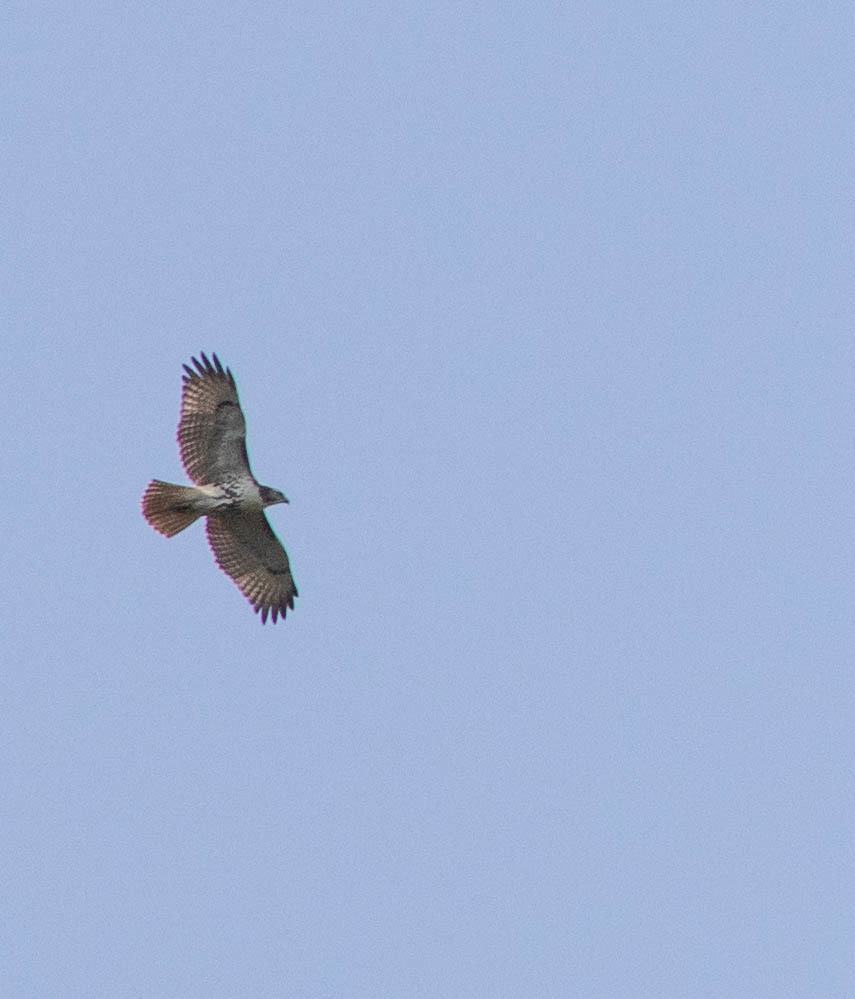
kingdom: Animalia
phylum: Chordata
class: Aves
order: Accipitriformes
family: Accipitridae
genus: Buteo
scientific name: Buteo jamaicensis
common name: Red-tailed hawk
